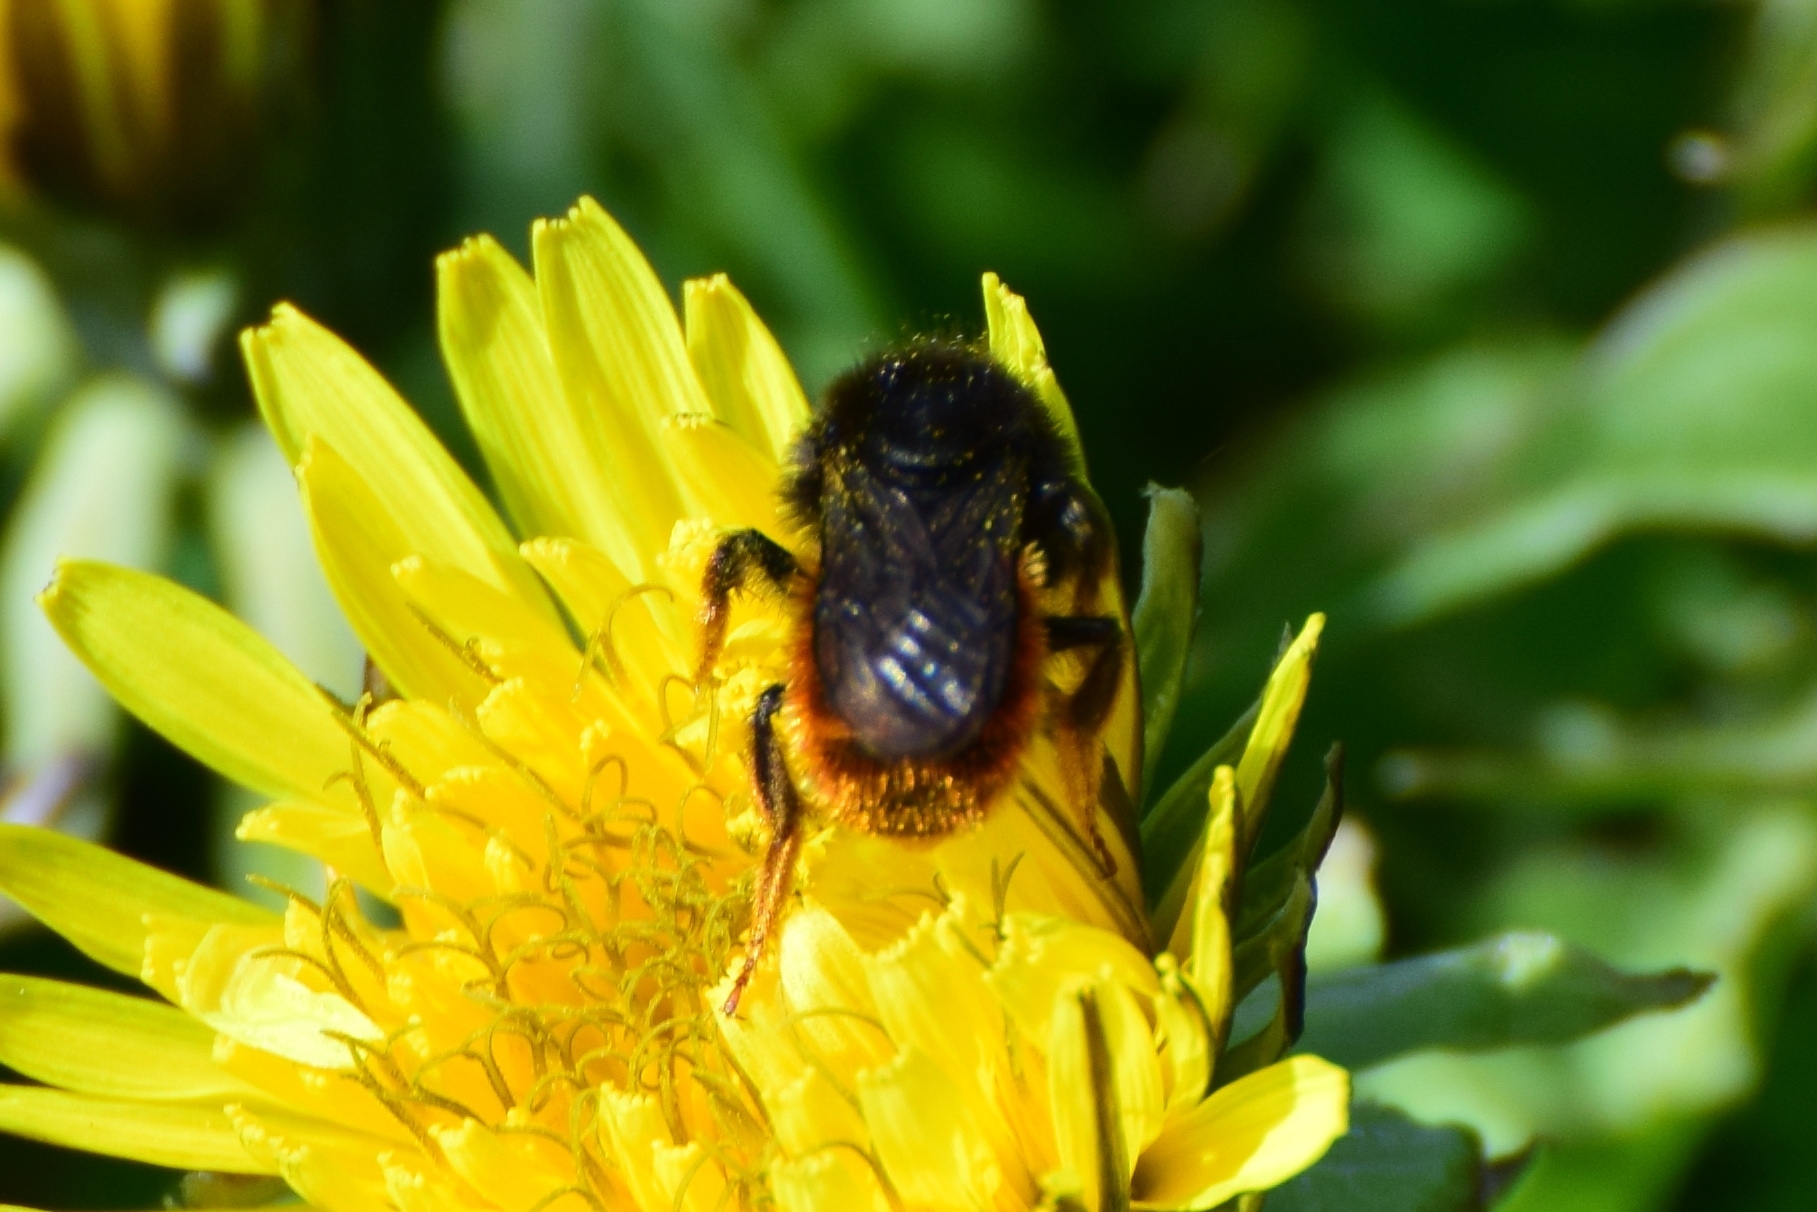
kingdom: Animalia
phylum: Arthropoda
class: Insecta
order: Hymenoptera
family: Megachilidae
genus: Osmia
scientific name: Osmia bicolor
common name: Red-tailed mason bee
